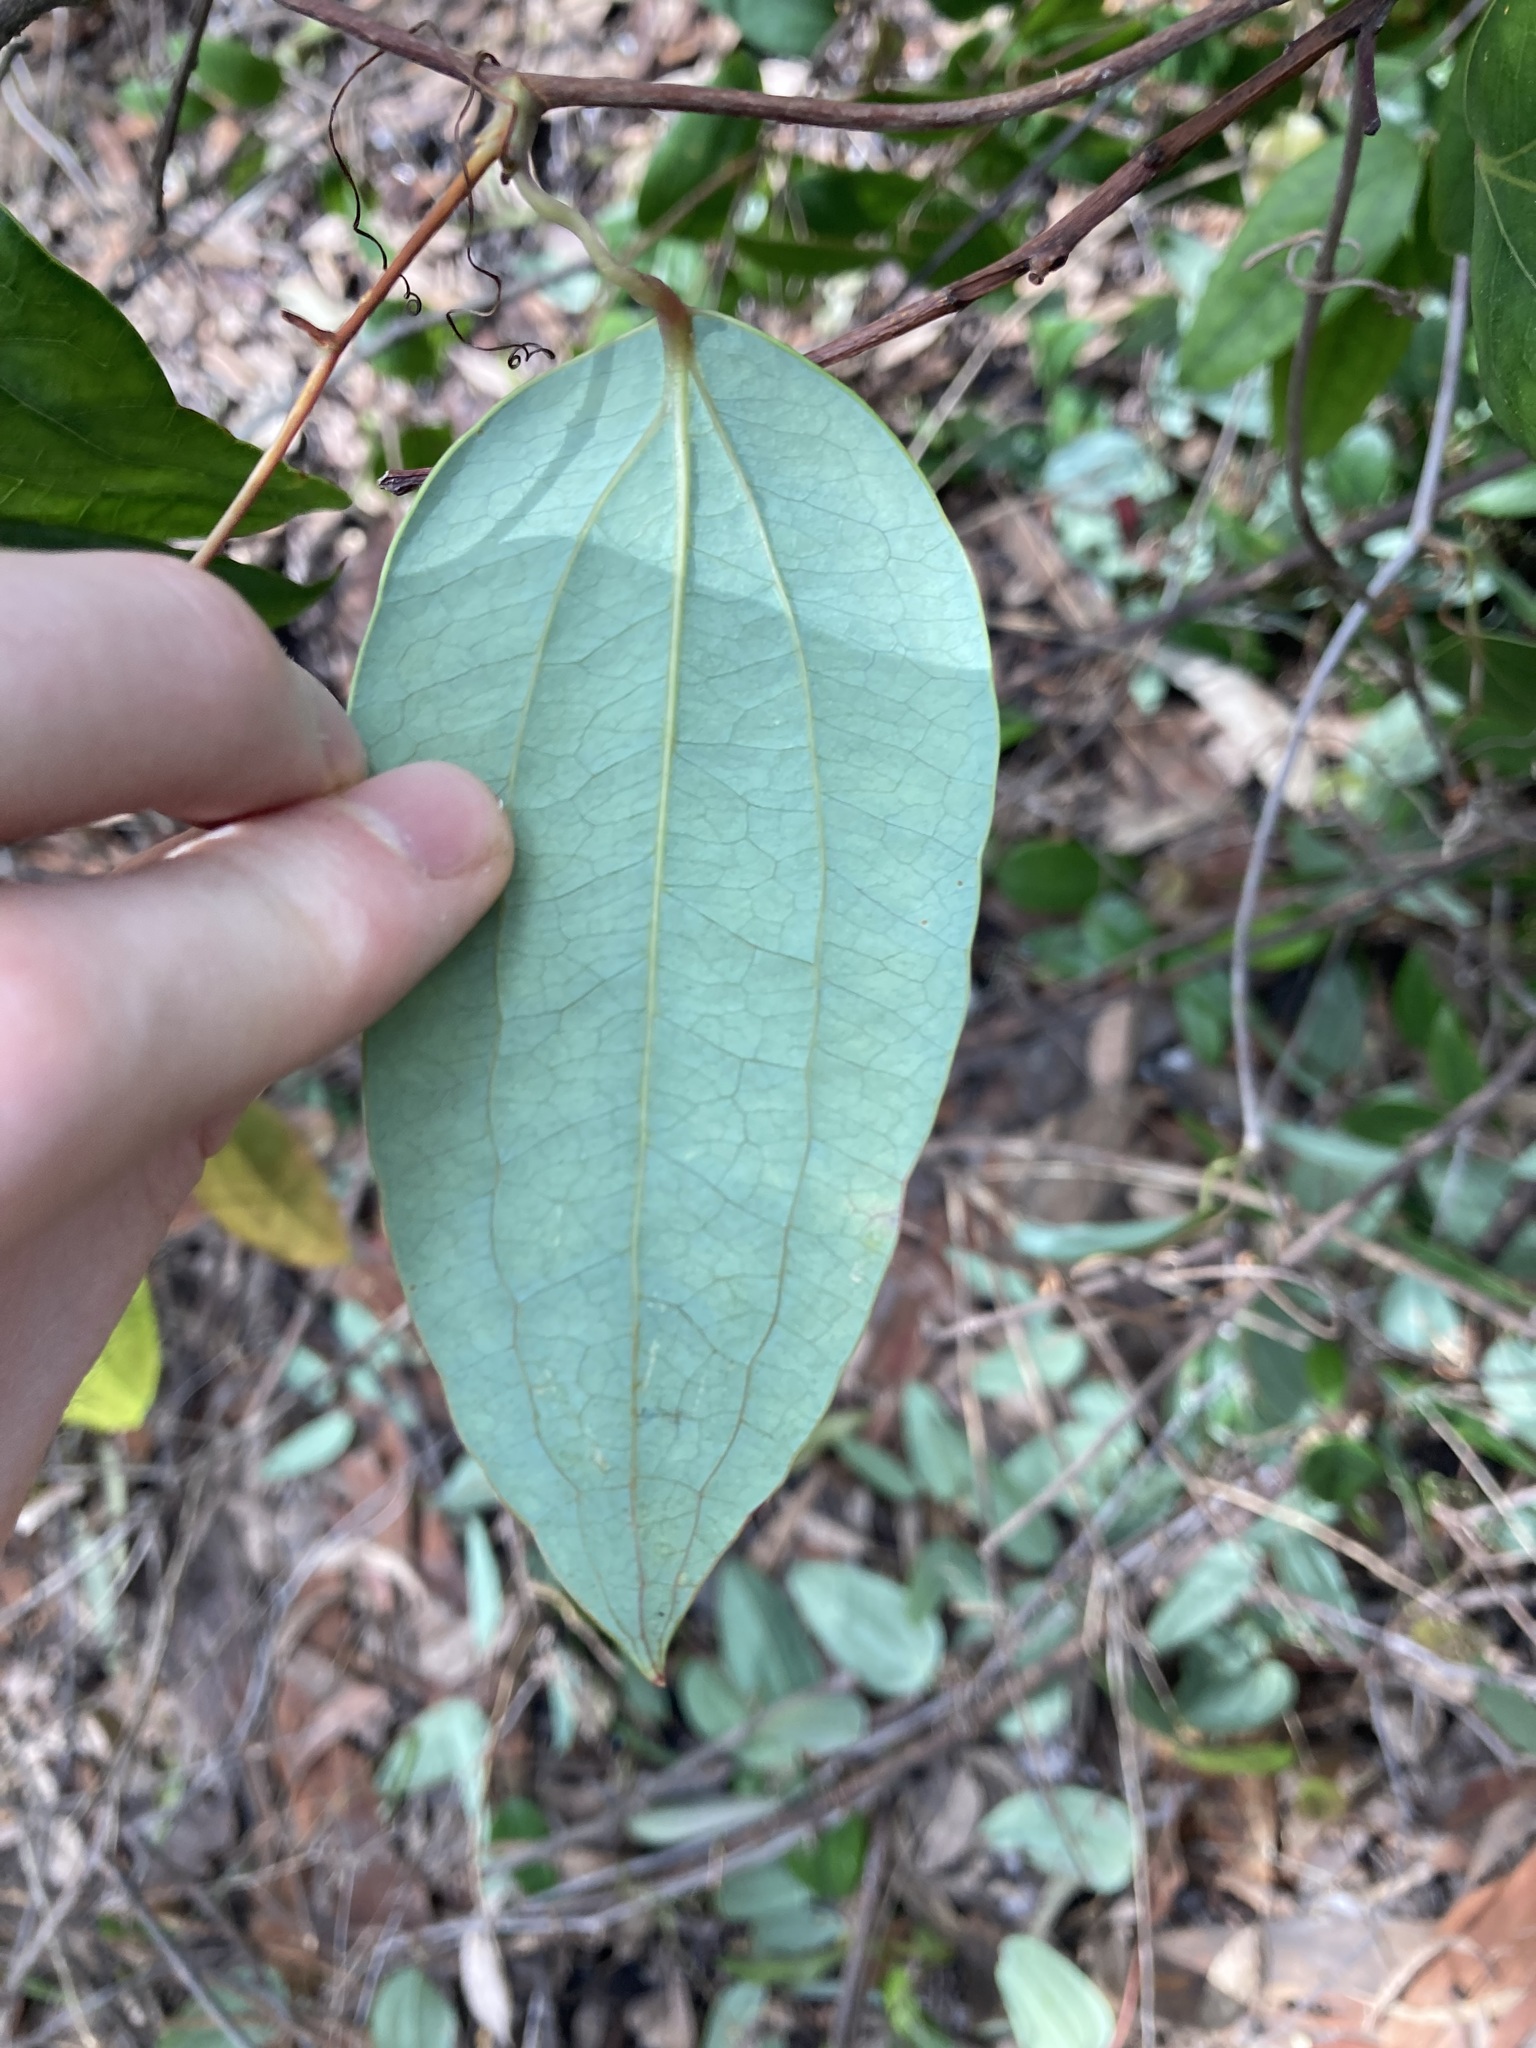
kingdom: Plantae
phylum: Tracheophyta
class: Liliopsida
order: Liliales
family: Smilacaceae
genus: Smilax
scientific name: Smilax glyciphylla
